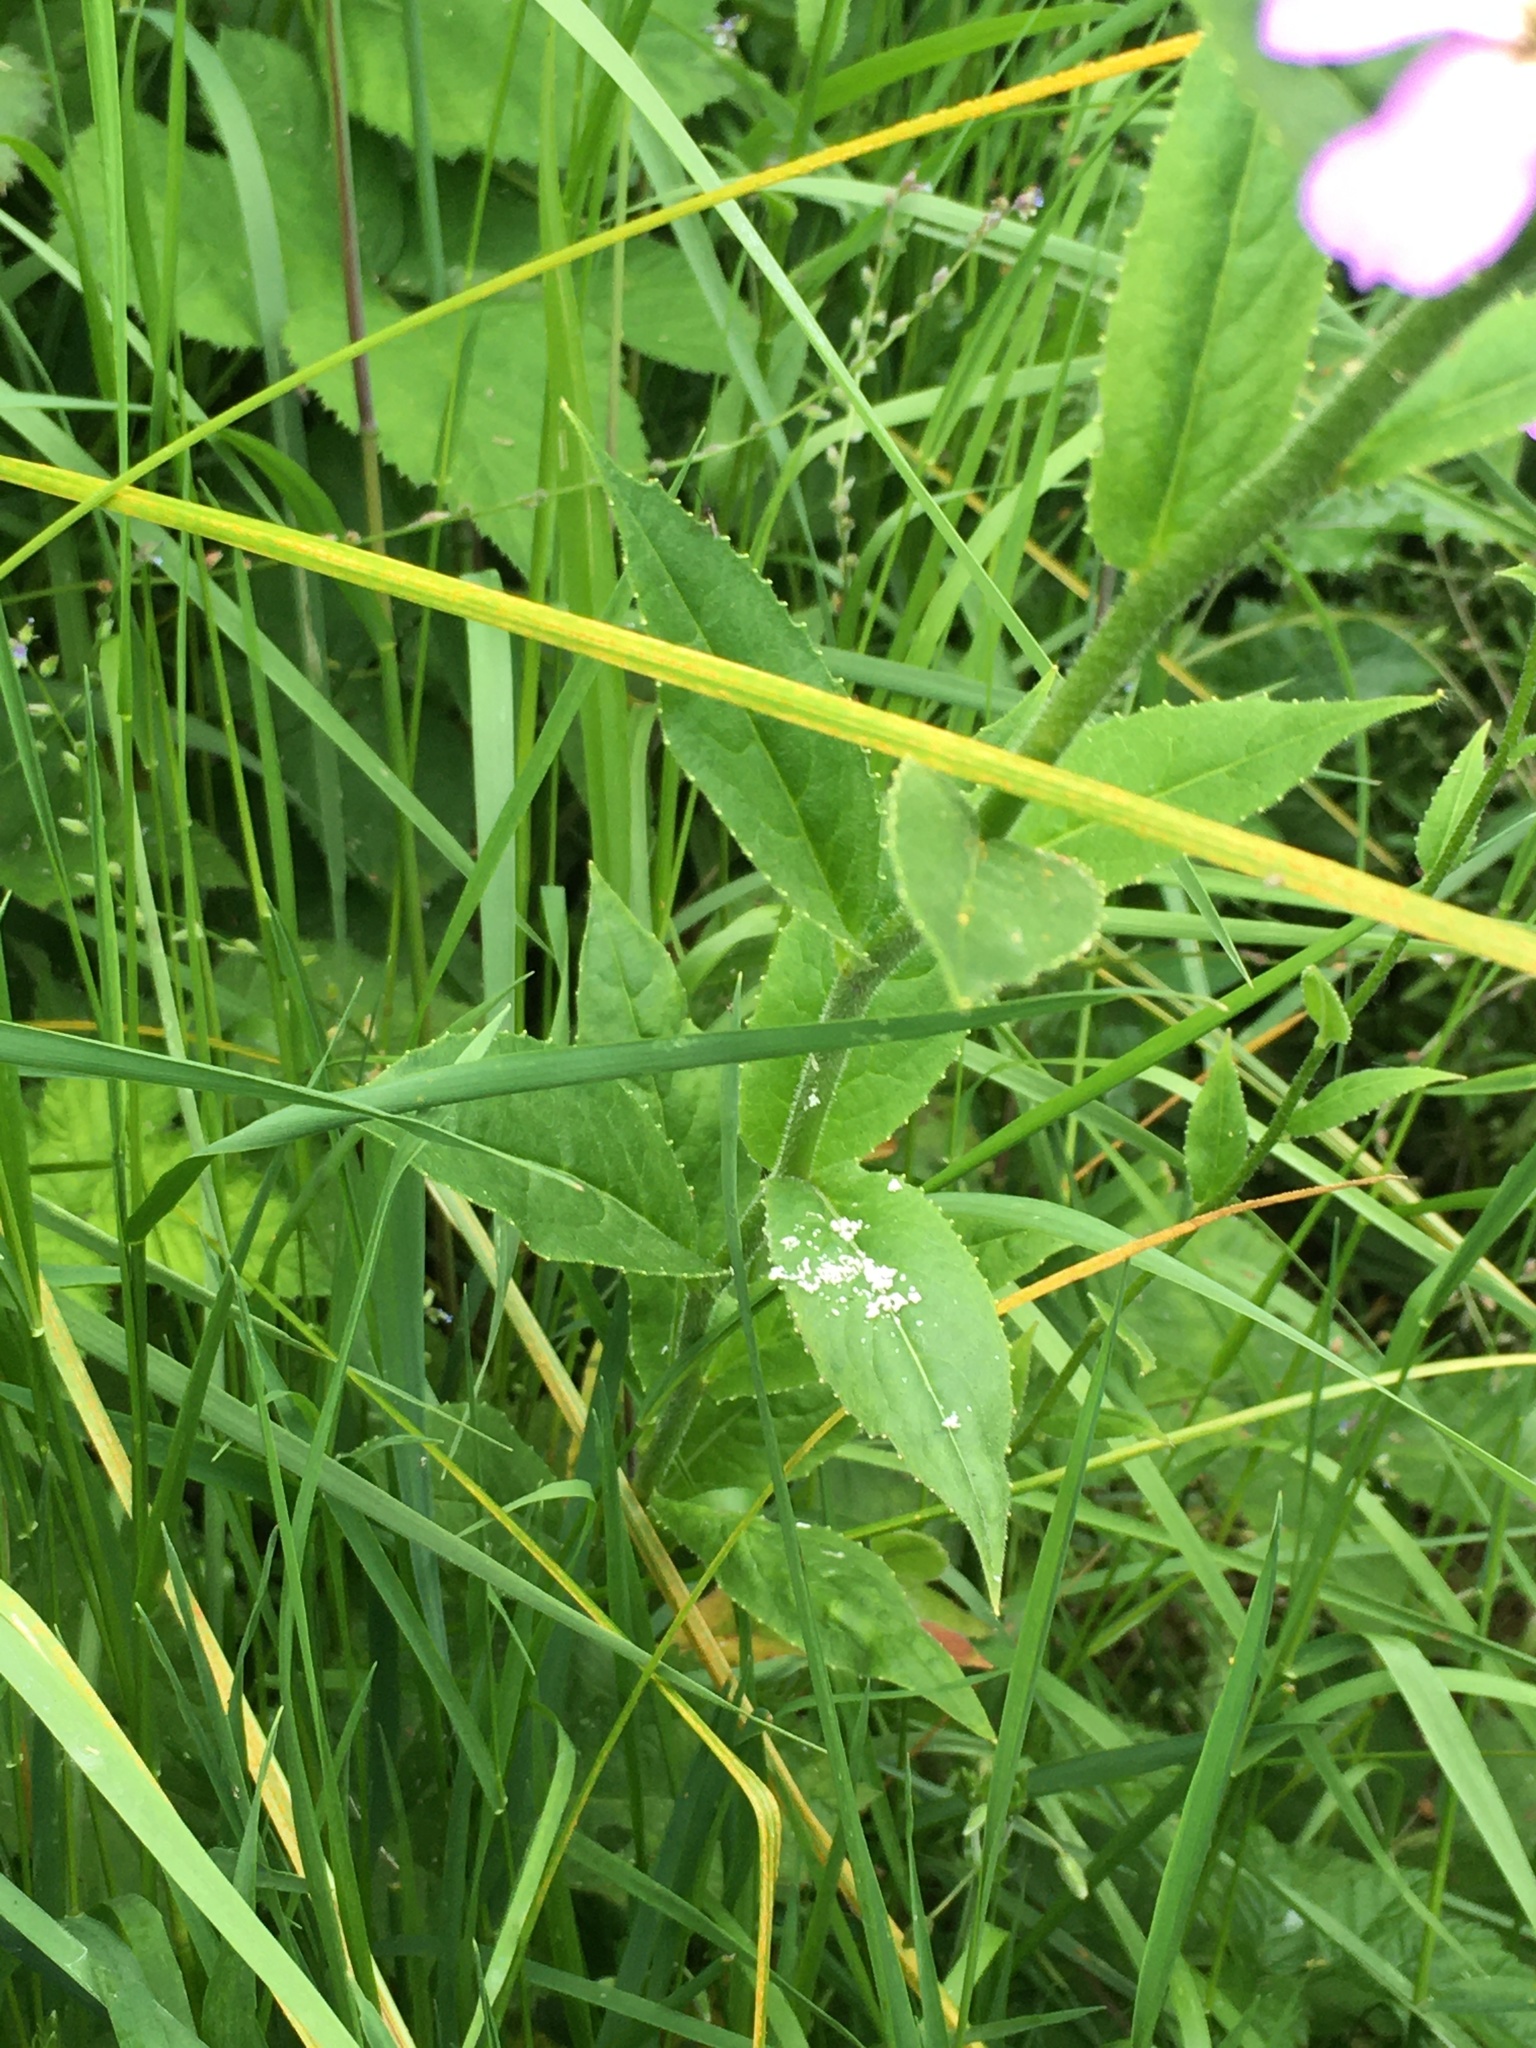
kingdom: Plantae
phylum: Tracheophyta
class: Magnoliopsida
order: Brassicales
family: Brassicaceae
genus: Hesperis
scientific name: Hesperis matronalis
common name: Dame's-violet
